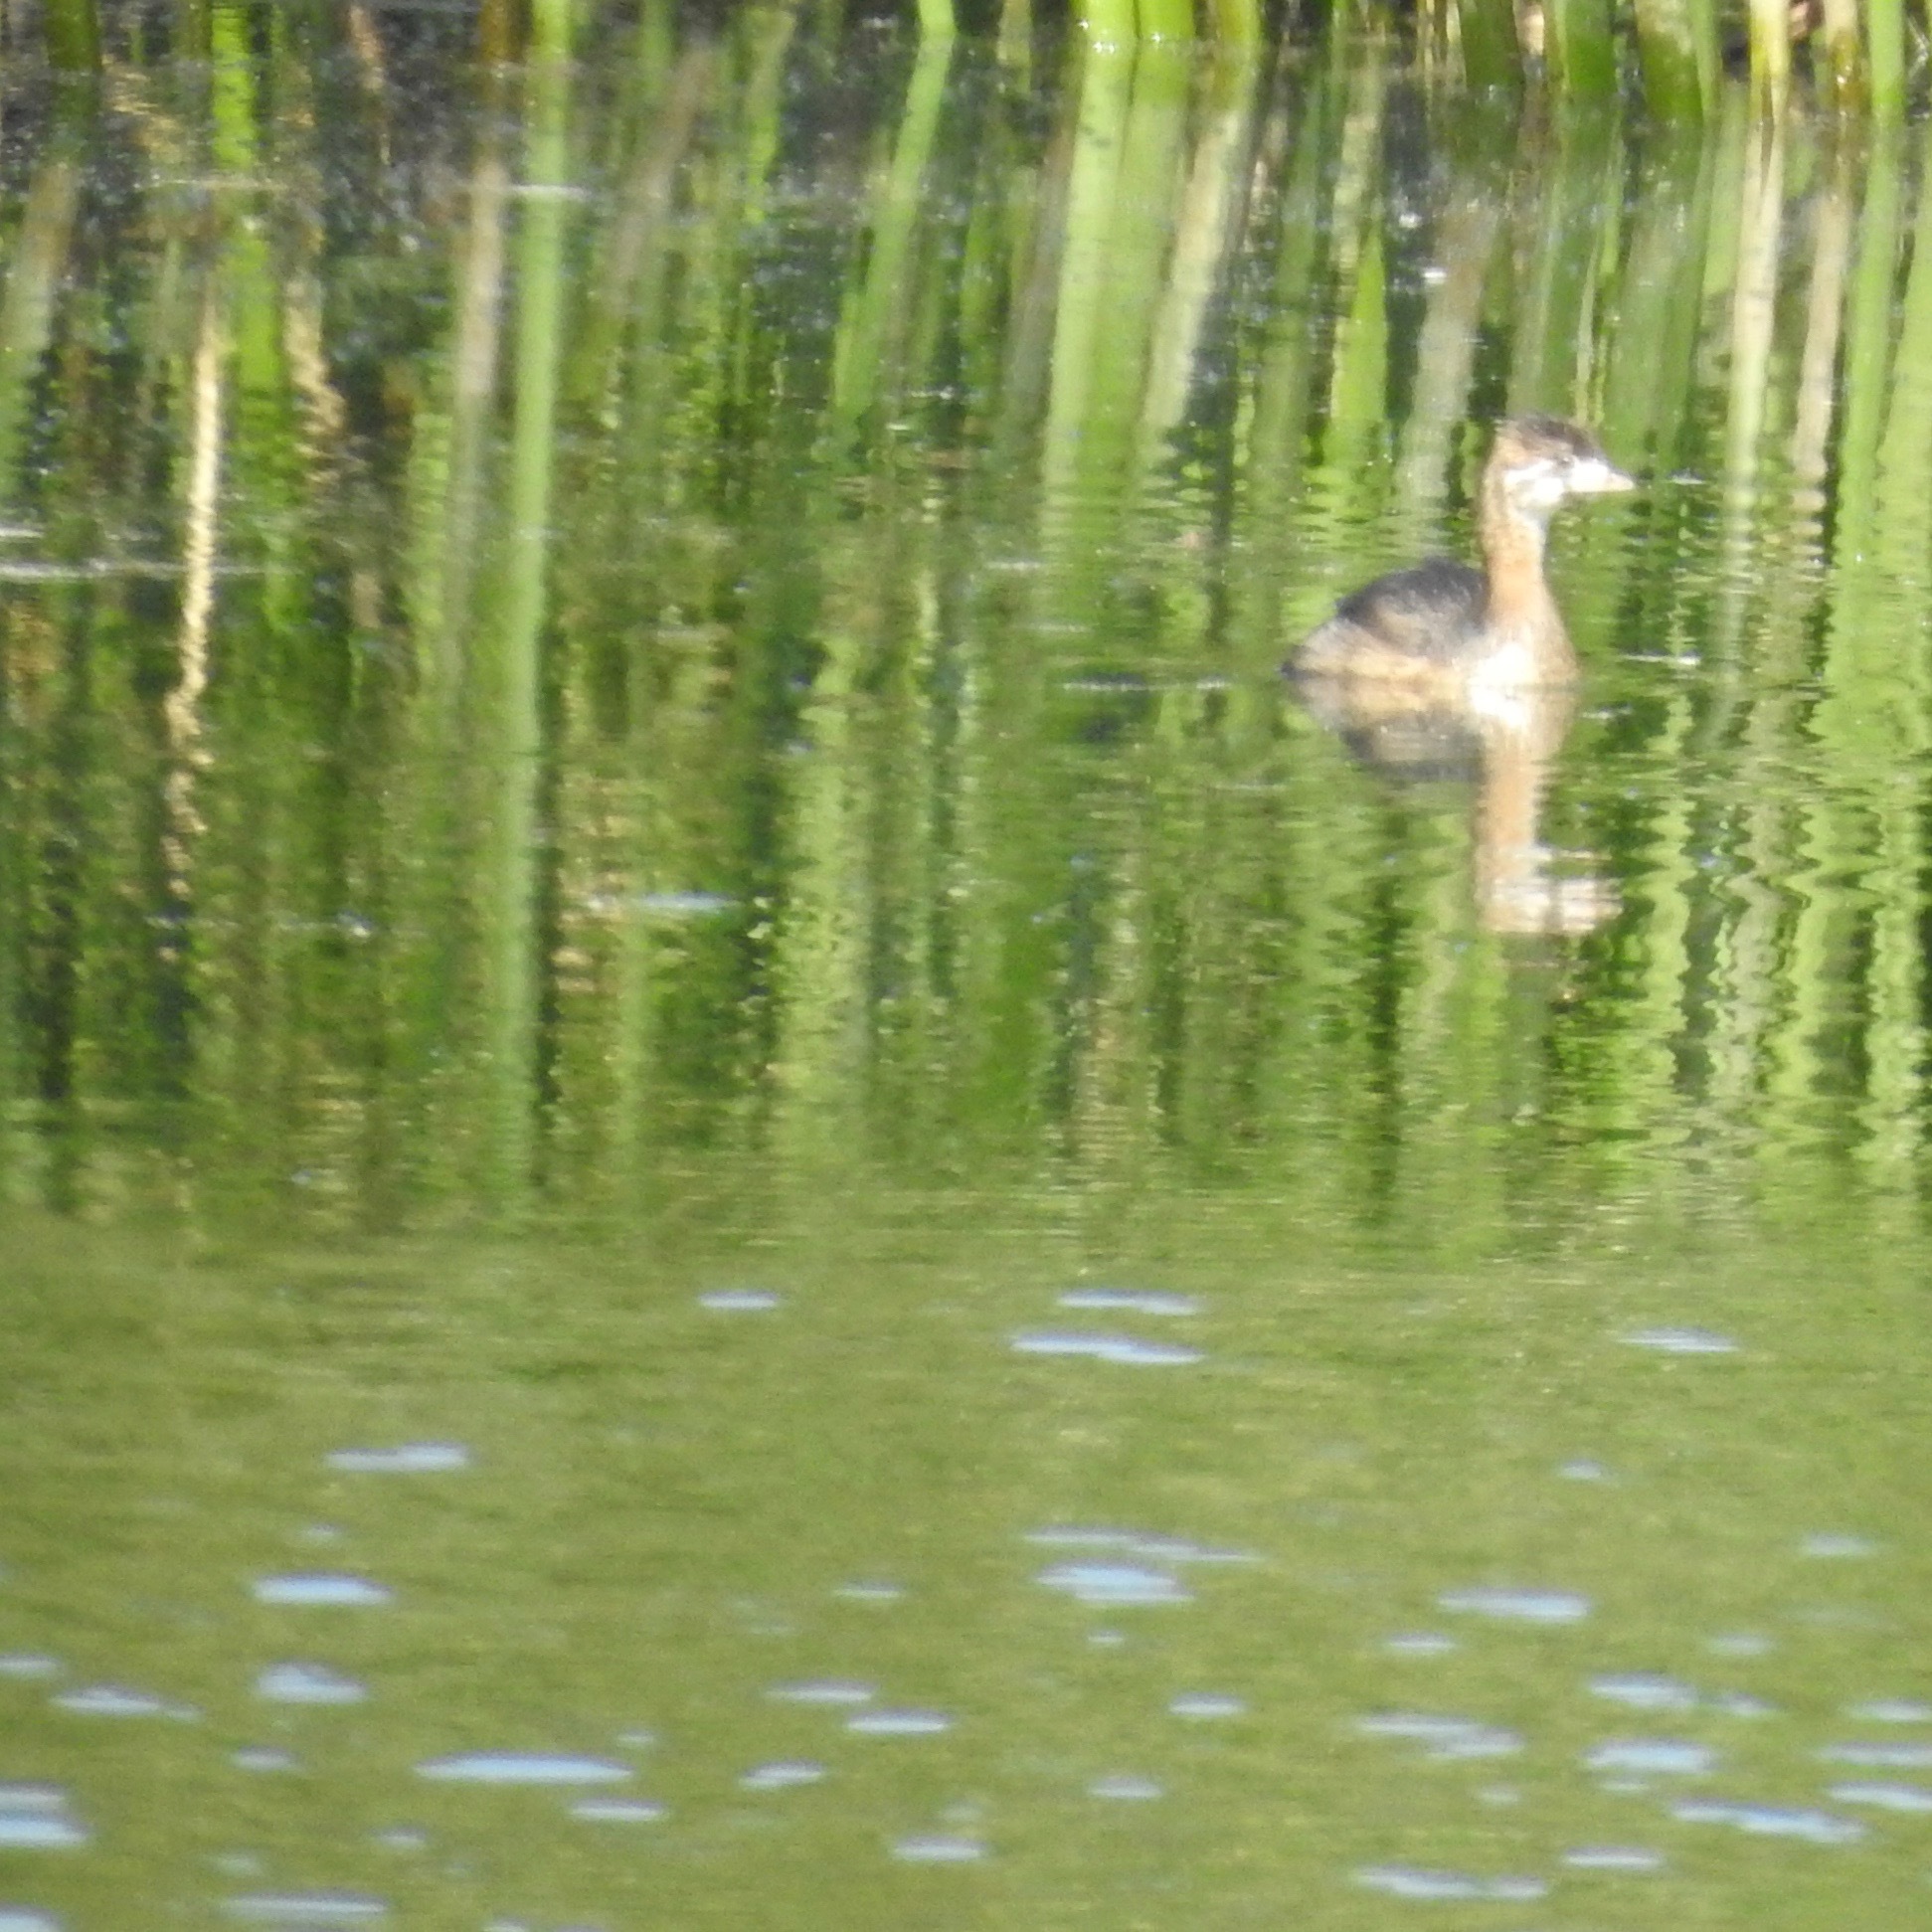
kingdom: Animalia
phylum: Chordata
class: Aves
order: Podicipediformes
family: Podicipedidae
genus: Podilymbus
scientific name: Podilymbus podiceps
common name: Pied-billed grebe
